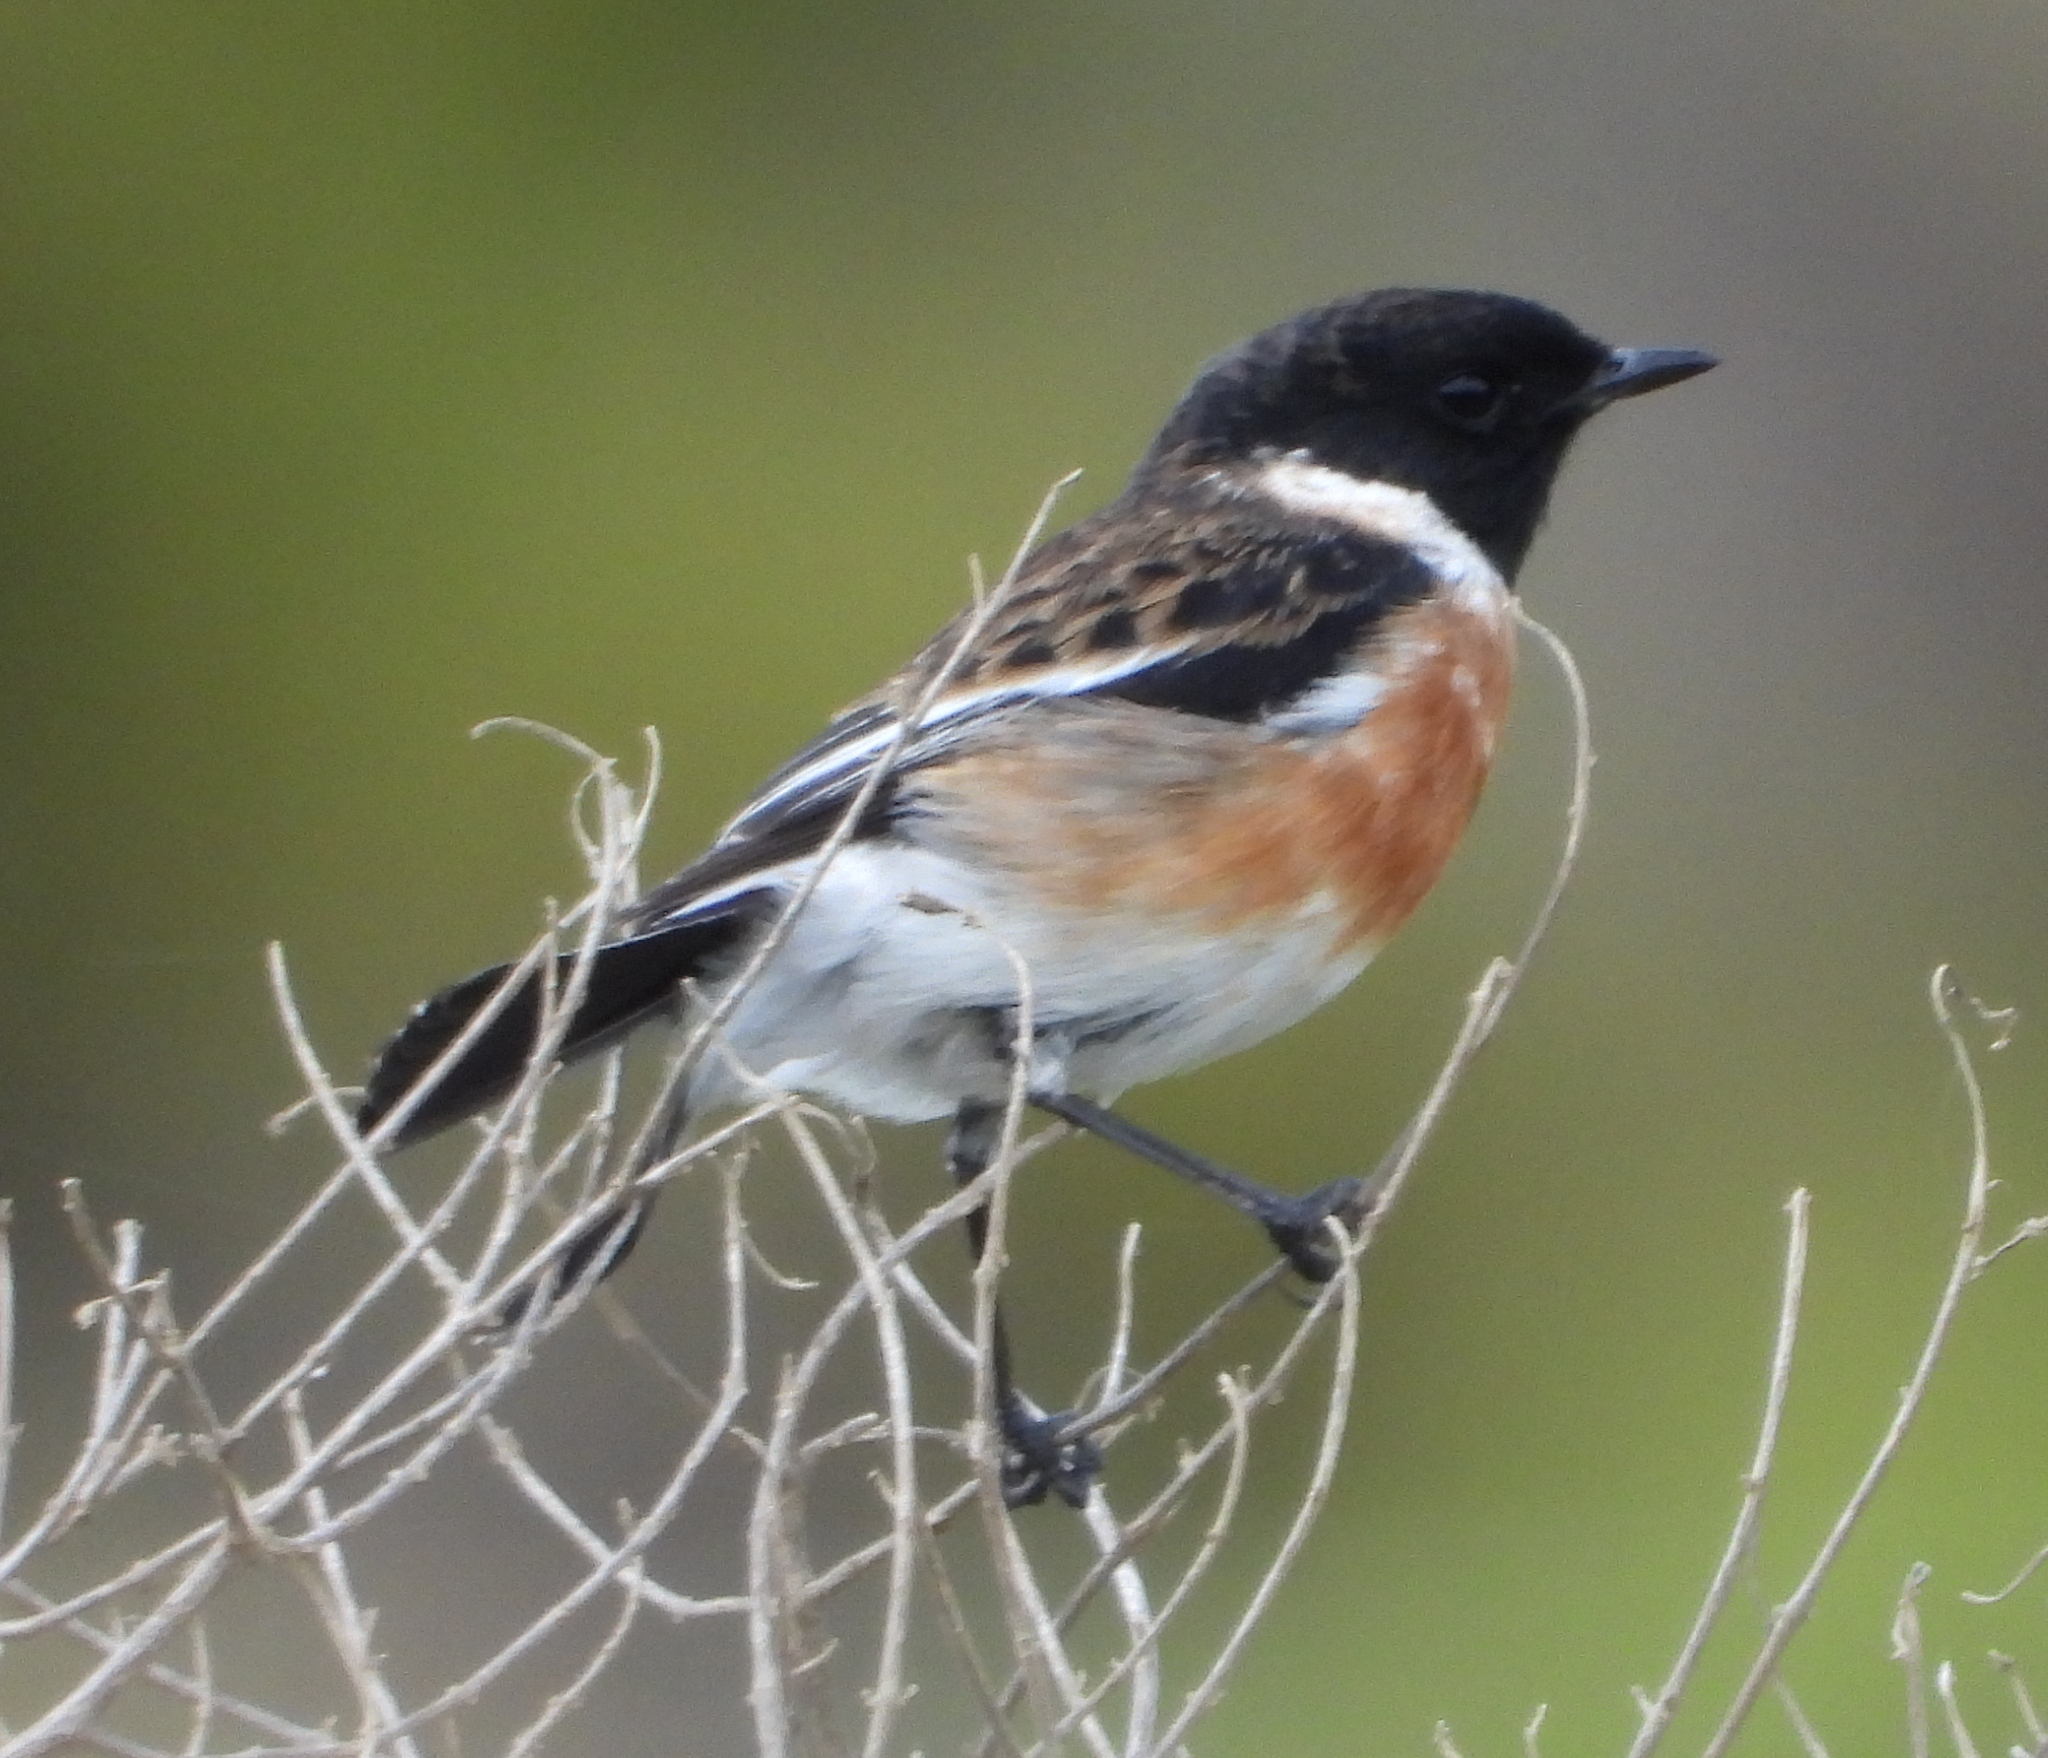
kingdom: Animalia
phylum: Chordata
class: Aves
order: Passeriformes
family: Muscicapidae
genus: Saxicola
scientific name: Saxicola torquatus
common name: African stonechat
